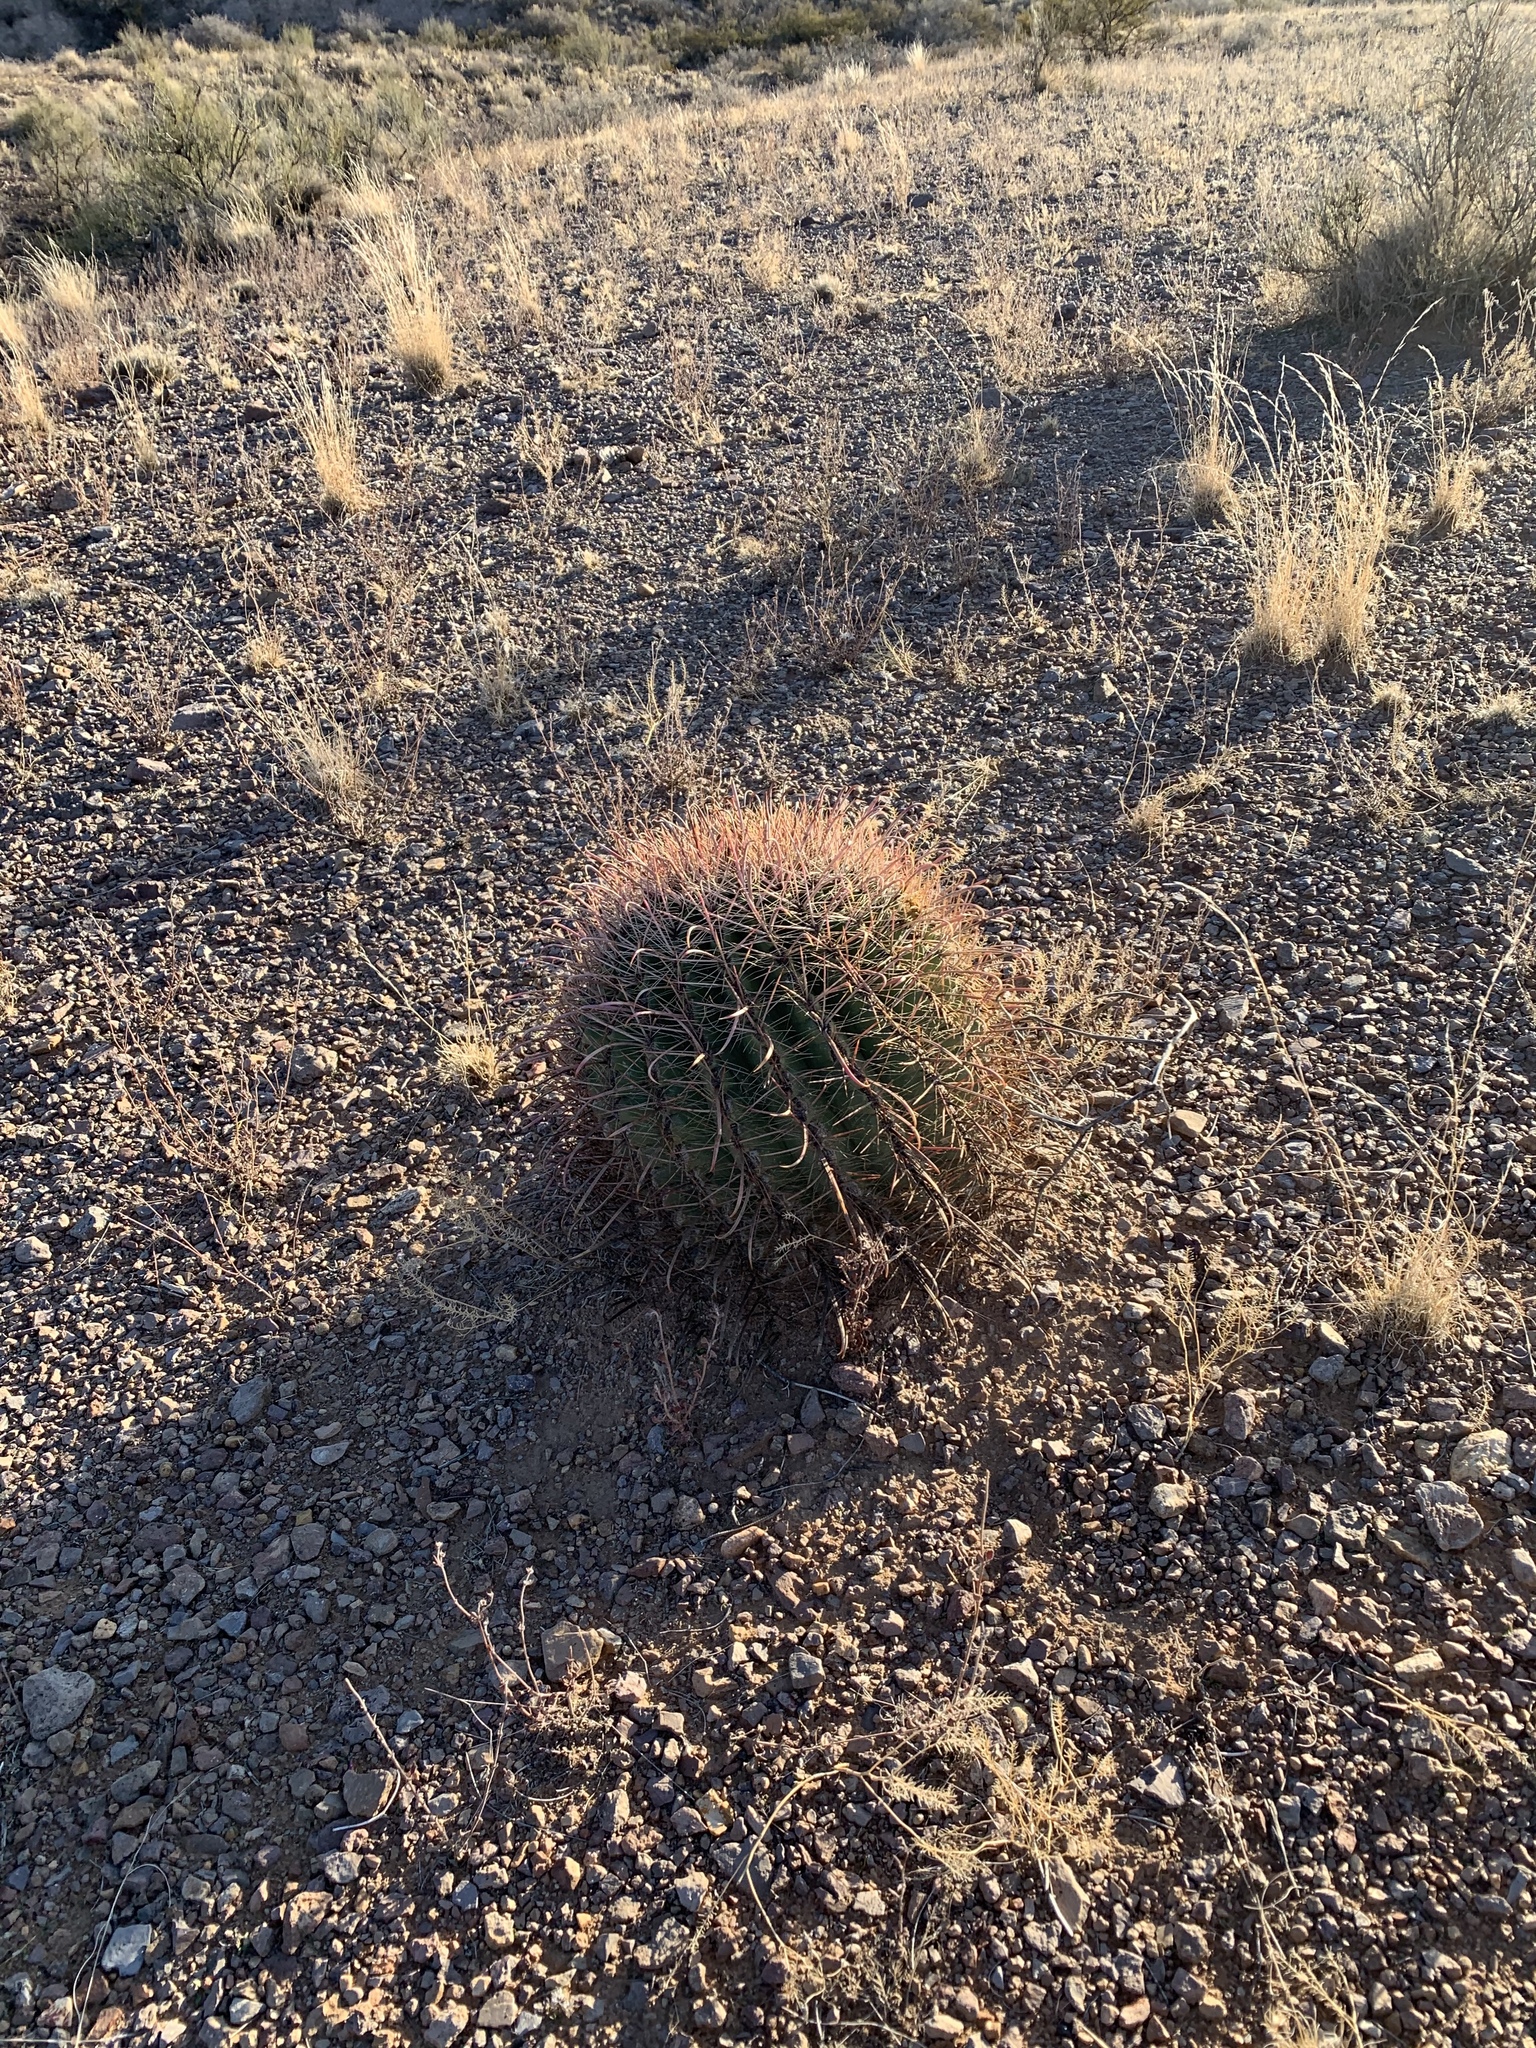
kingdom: Plantae
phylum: Tracheophyta
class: Magnoliopsida
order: Caryophyllales
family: Cactaceae
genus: Ferocactus
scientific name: Ferocactus wislizeni
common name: Candy barrel cactus
